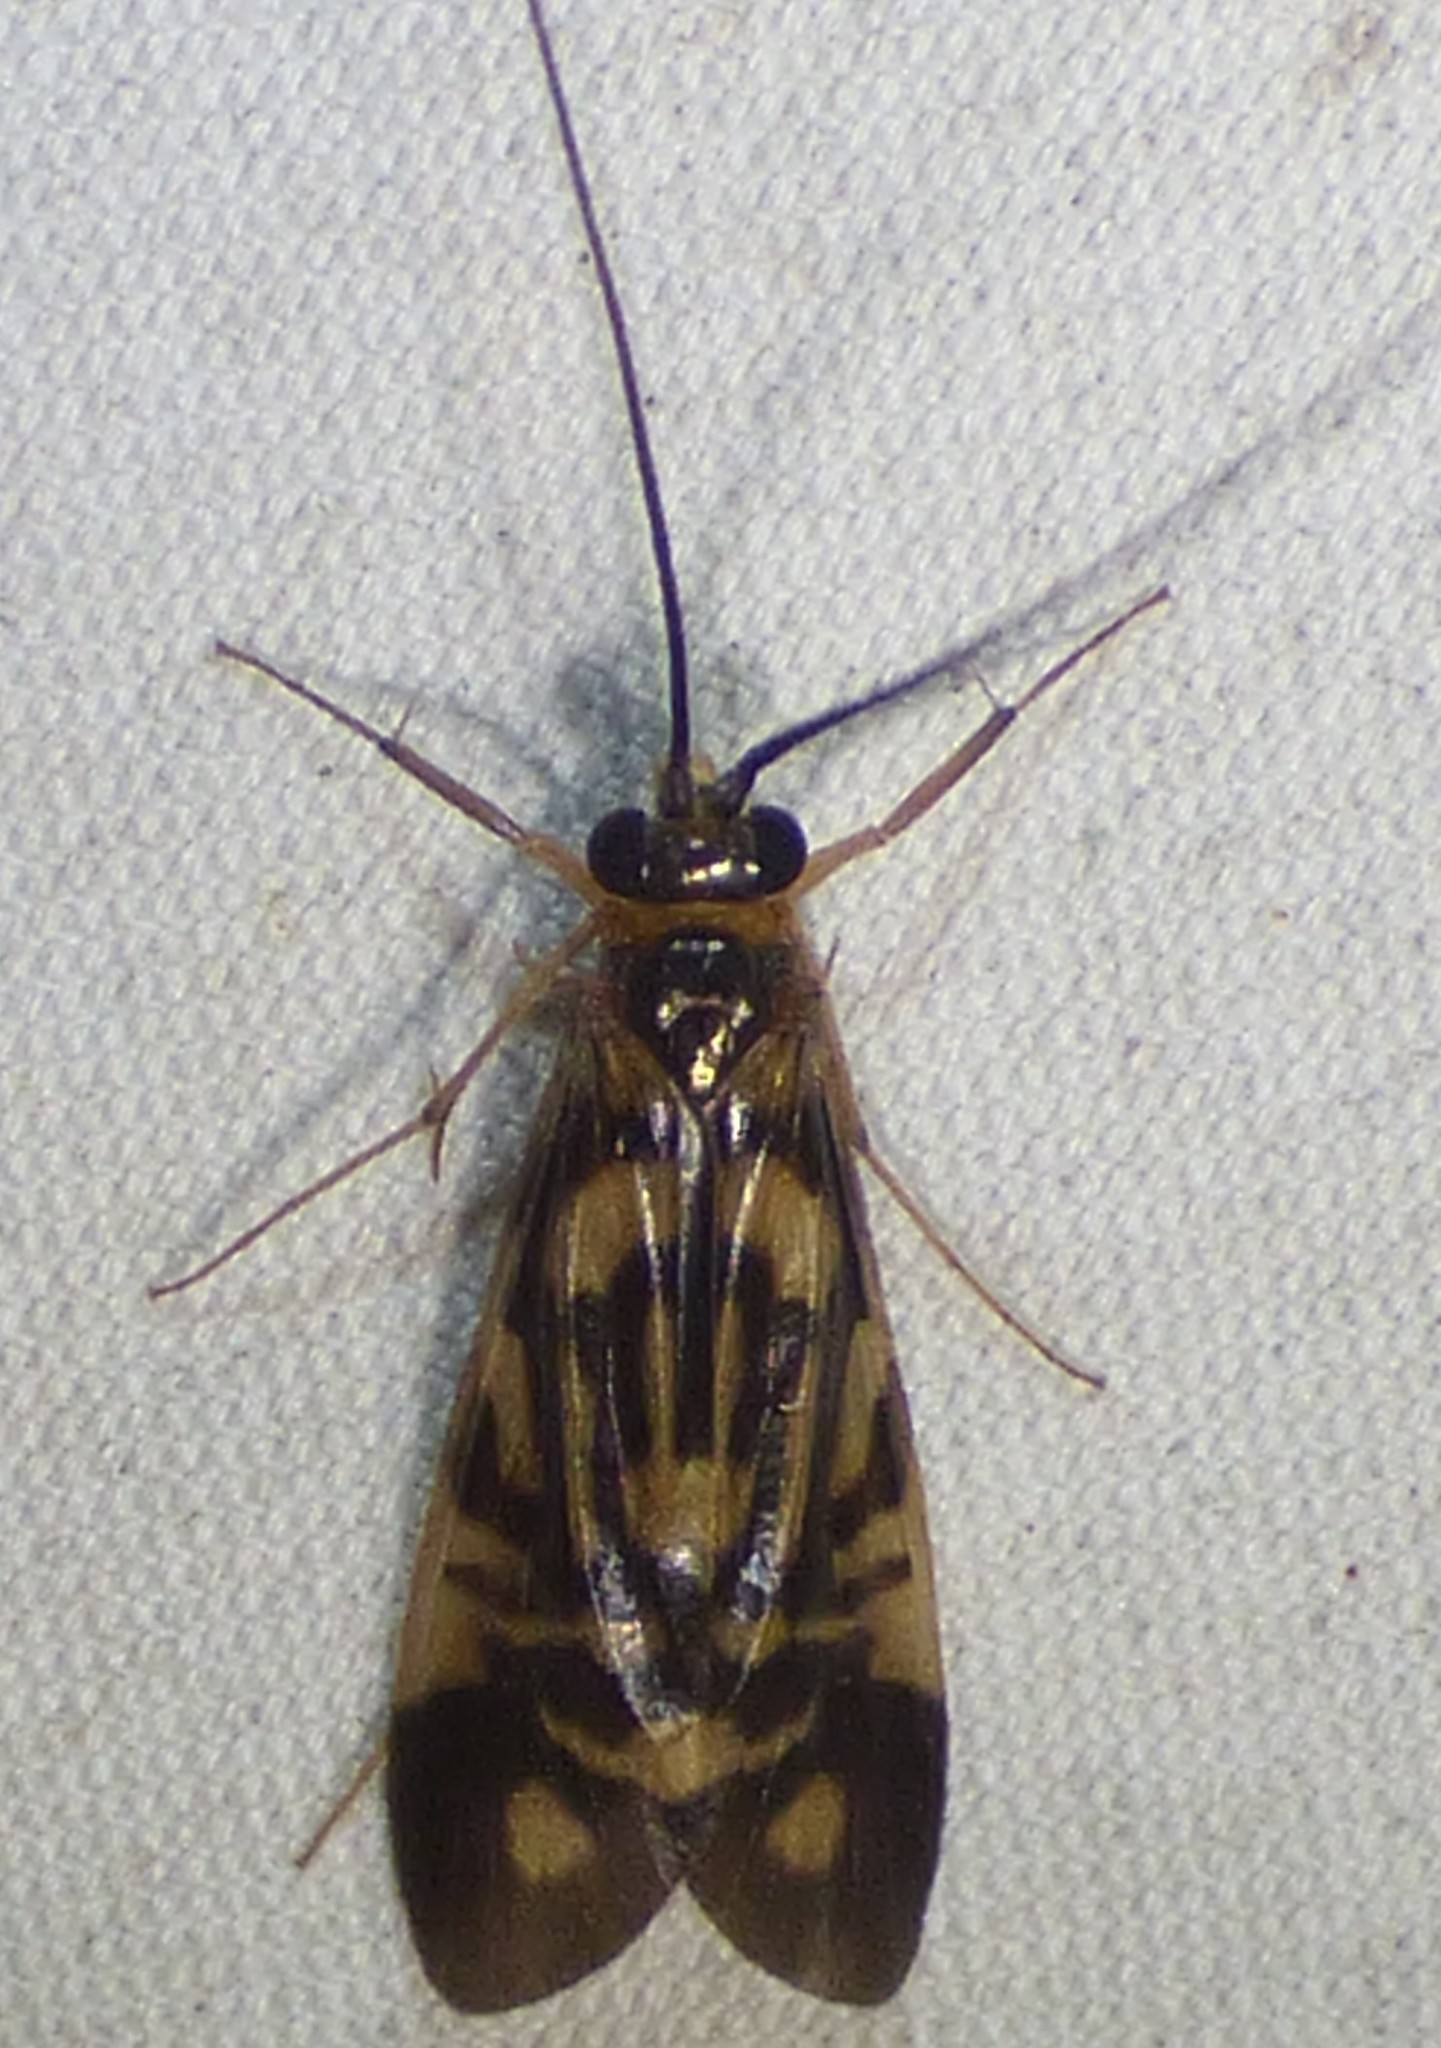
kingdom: Animalia
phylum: Arthropoda
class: Insecta
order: Trichoptera
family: Hydropsychidae
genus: Macrostemum
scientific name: Macrostemum carolina
